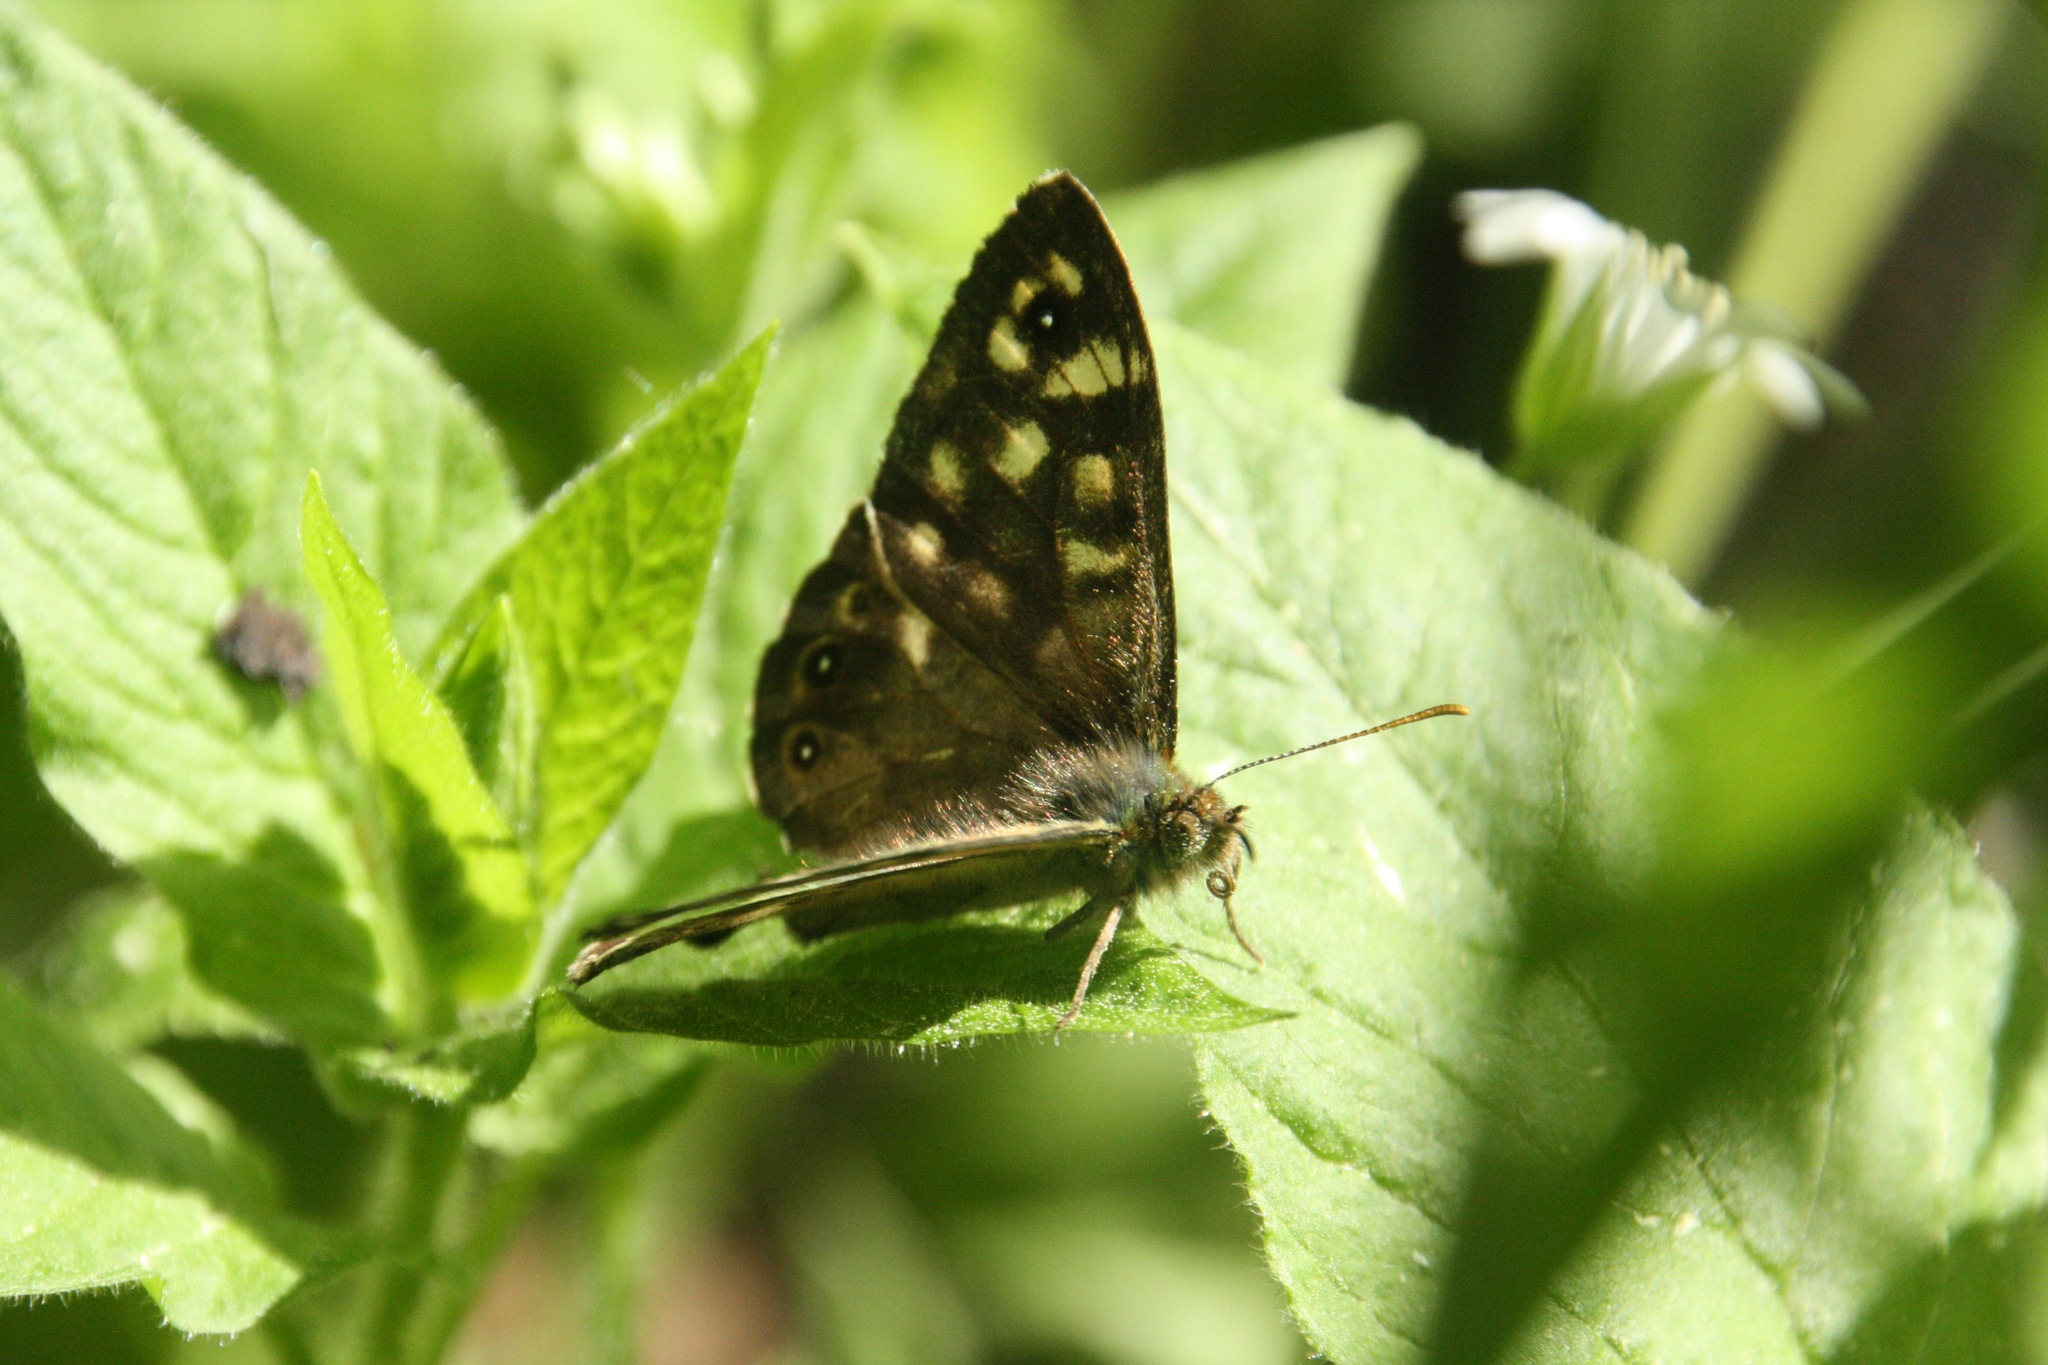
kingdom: Animalia
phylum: Arthropoda
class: Insecta
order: Lepidoptera
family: Nymphalidae
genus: Pararge
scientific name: Pararge aegeria
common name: Speckled wood
